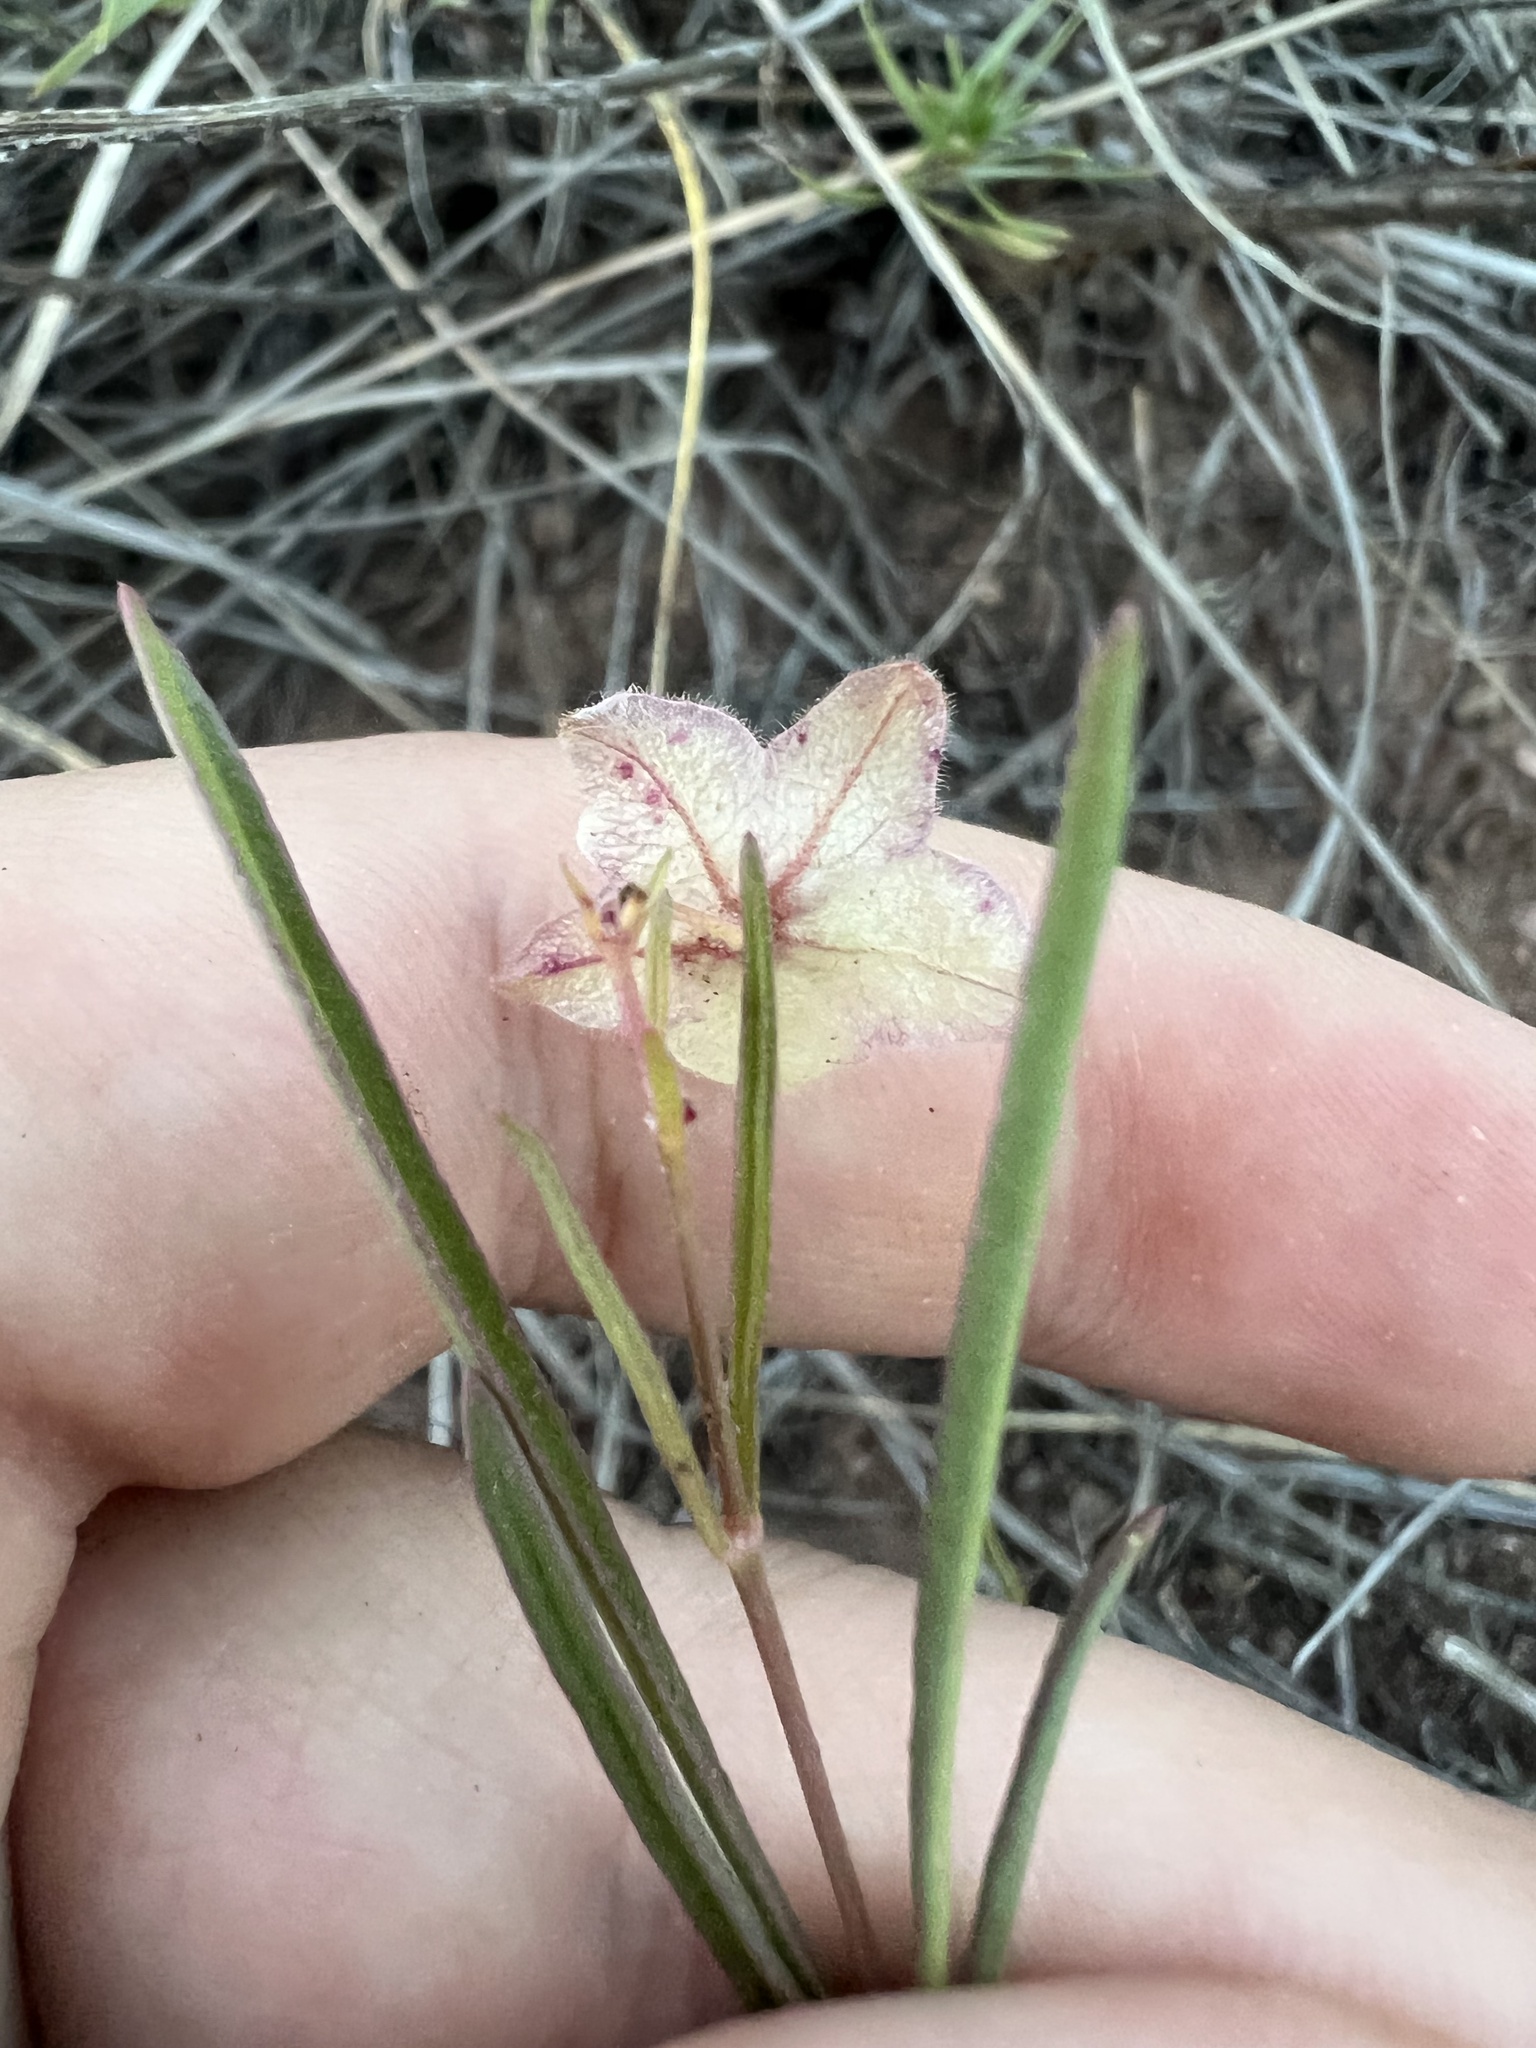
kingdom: Plantae
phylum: Tracheophyta
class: Magnoliopsida
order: Caryophyllales
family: Nyctaginaceae
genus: Mirabilis
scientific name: Mirabilis linearis
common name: Linear-leaved four-o'clock
